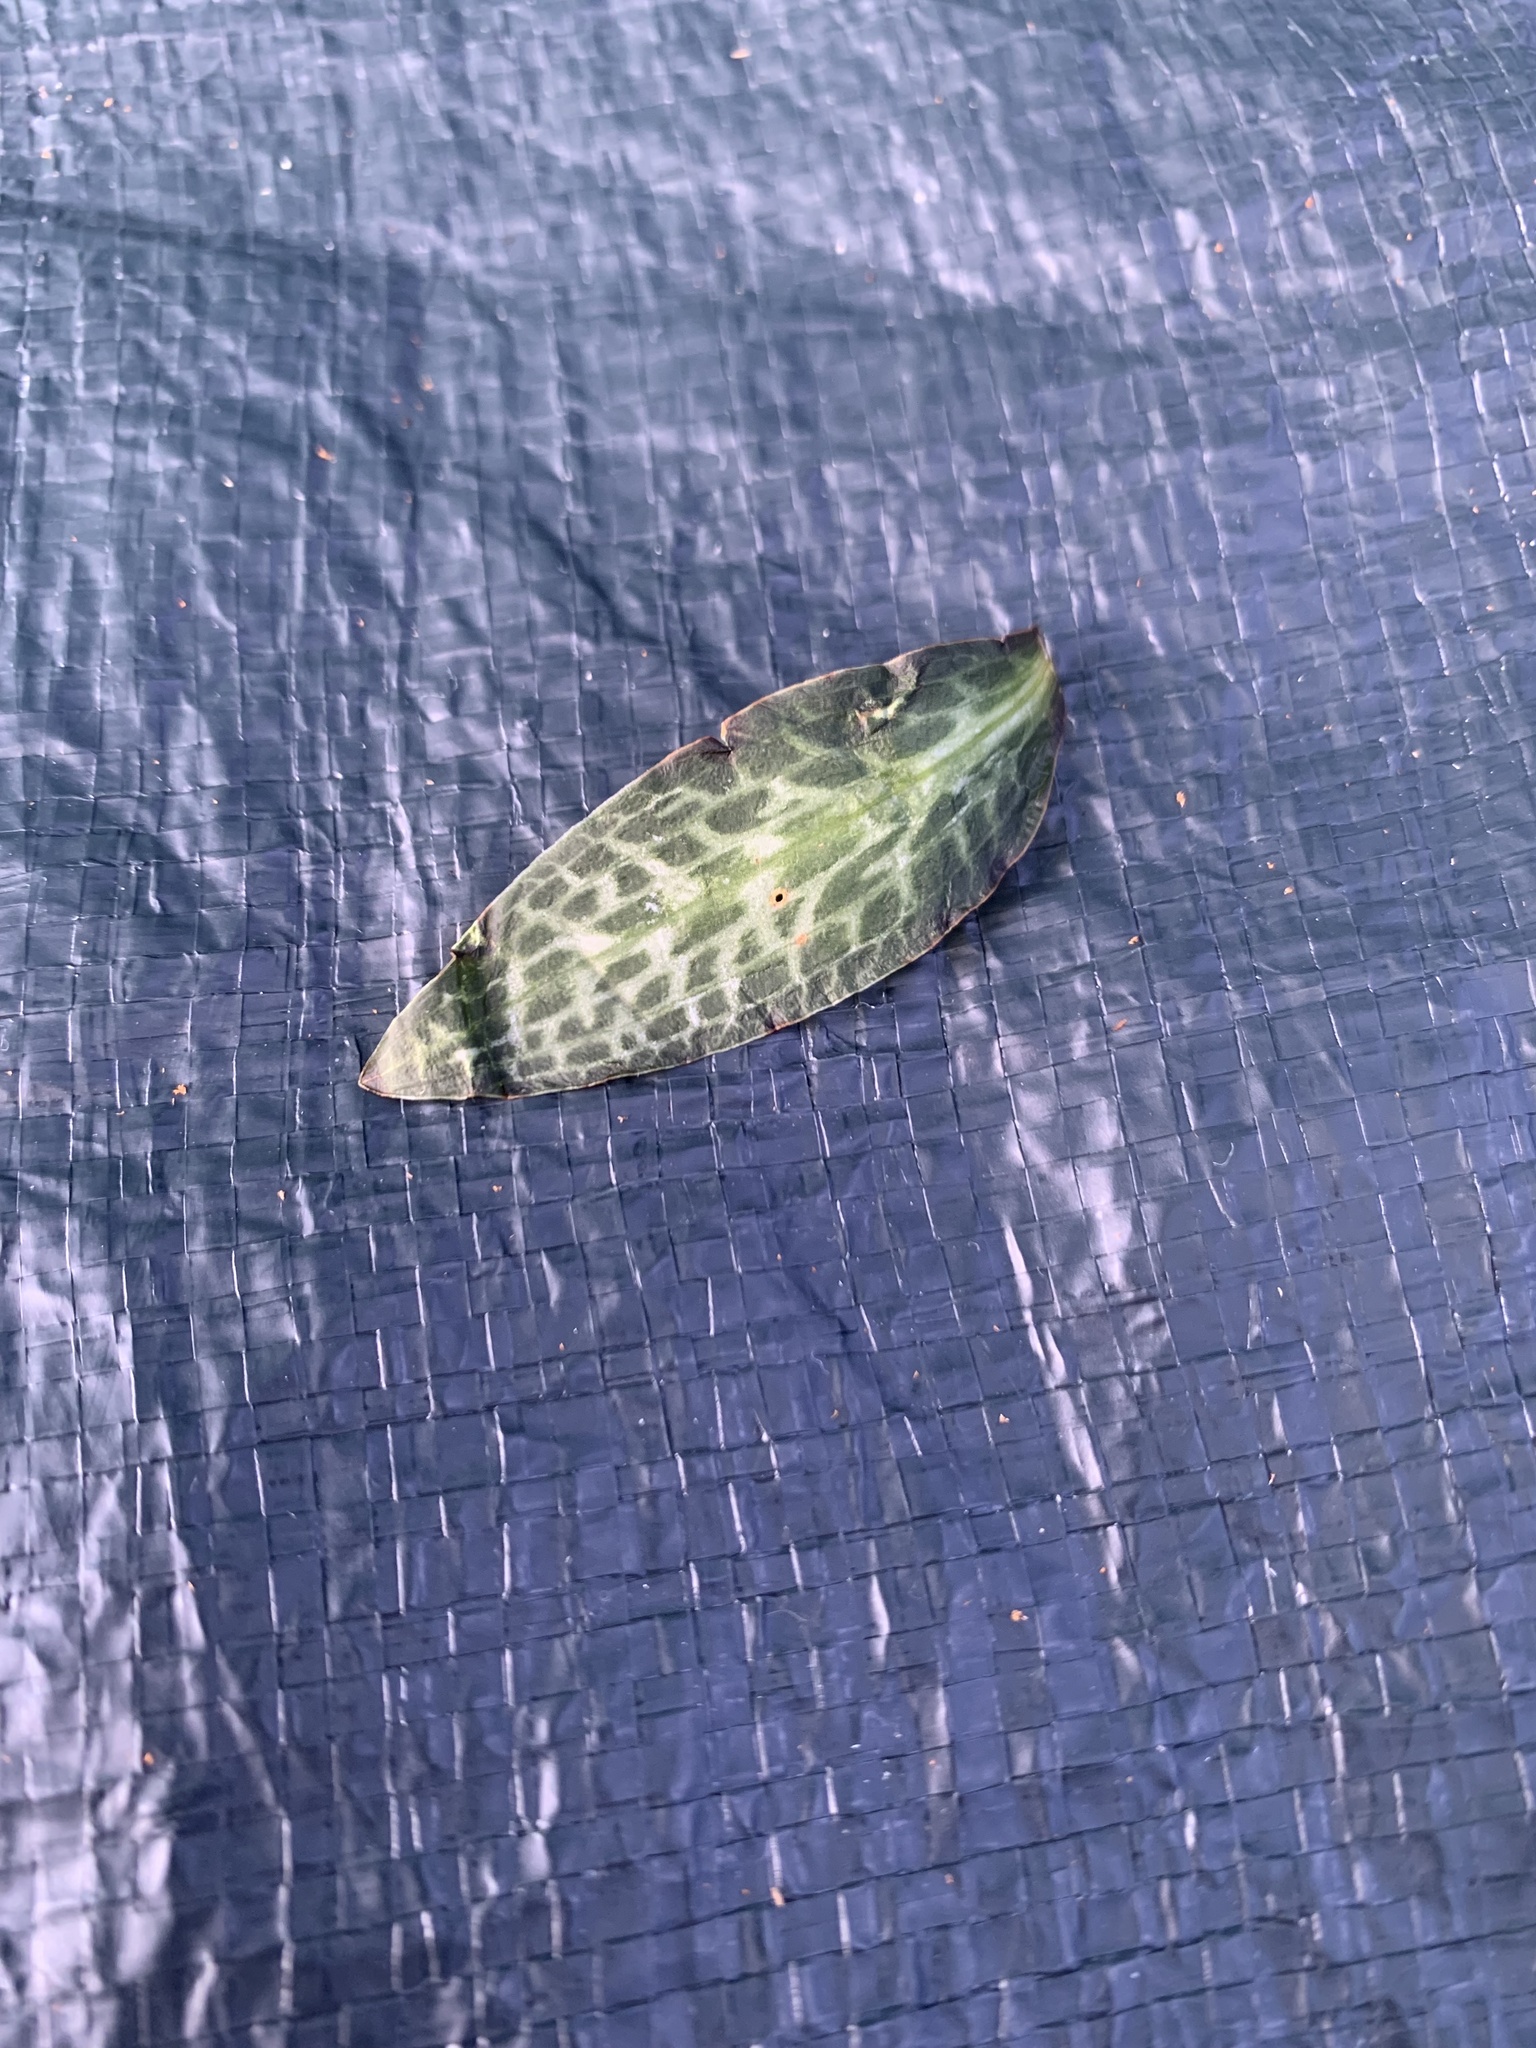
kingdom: Plantae
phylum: Tracheophyta
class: Liliopsida
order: Asparagales
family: Orchidaceae
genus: Goodyera
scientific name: Goodyera oblongifolia
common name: Giant rattlesnake-plantain
